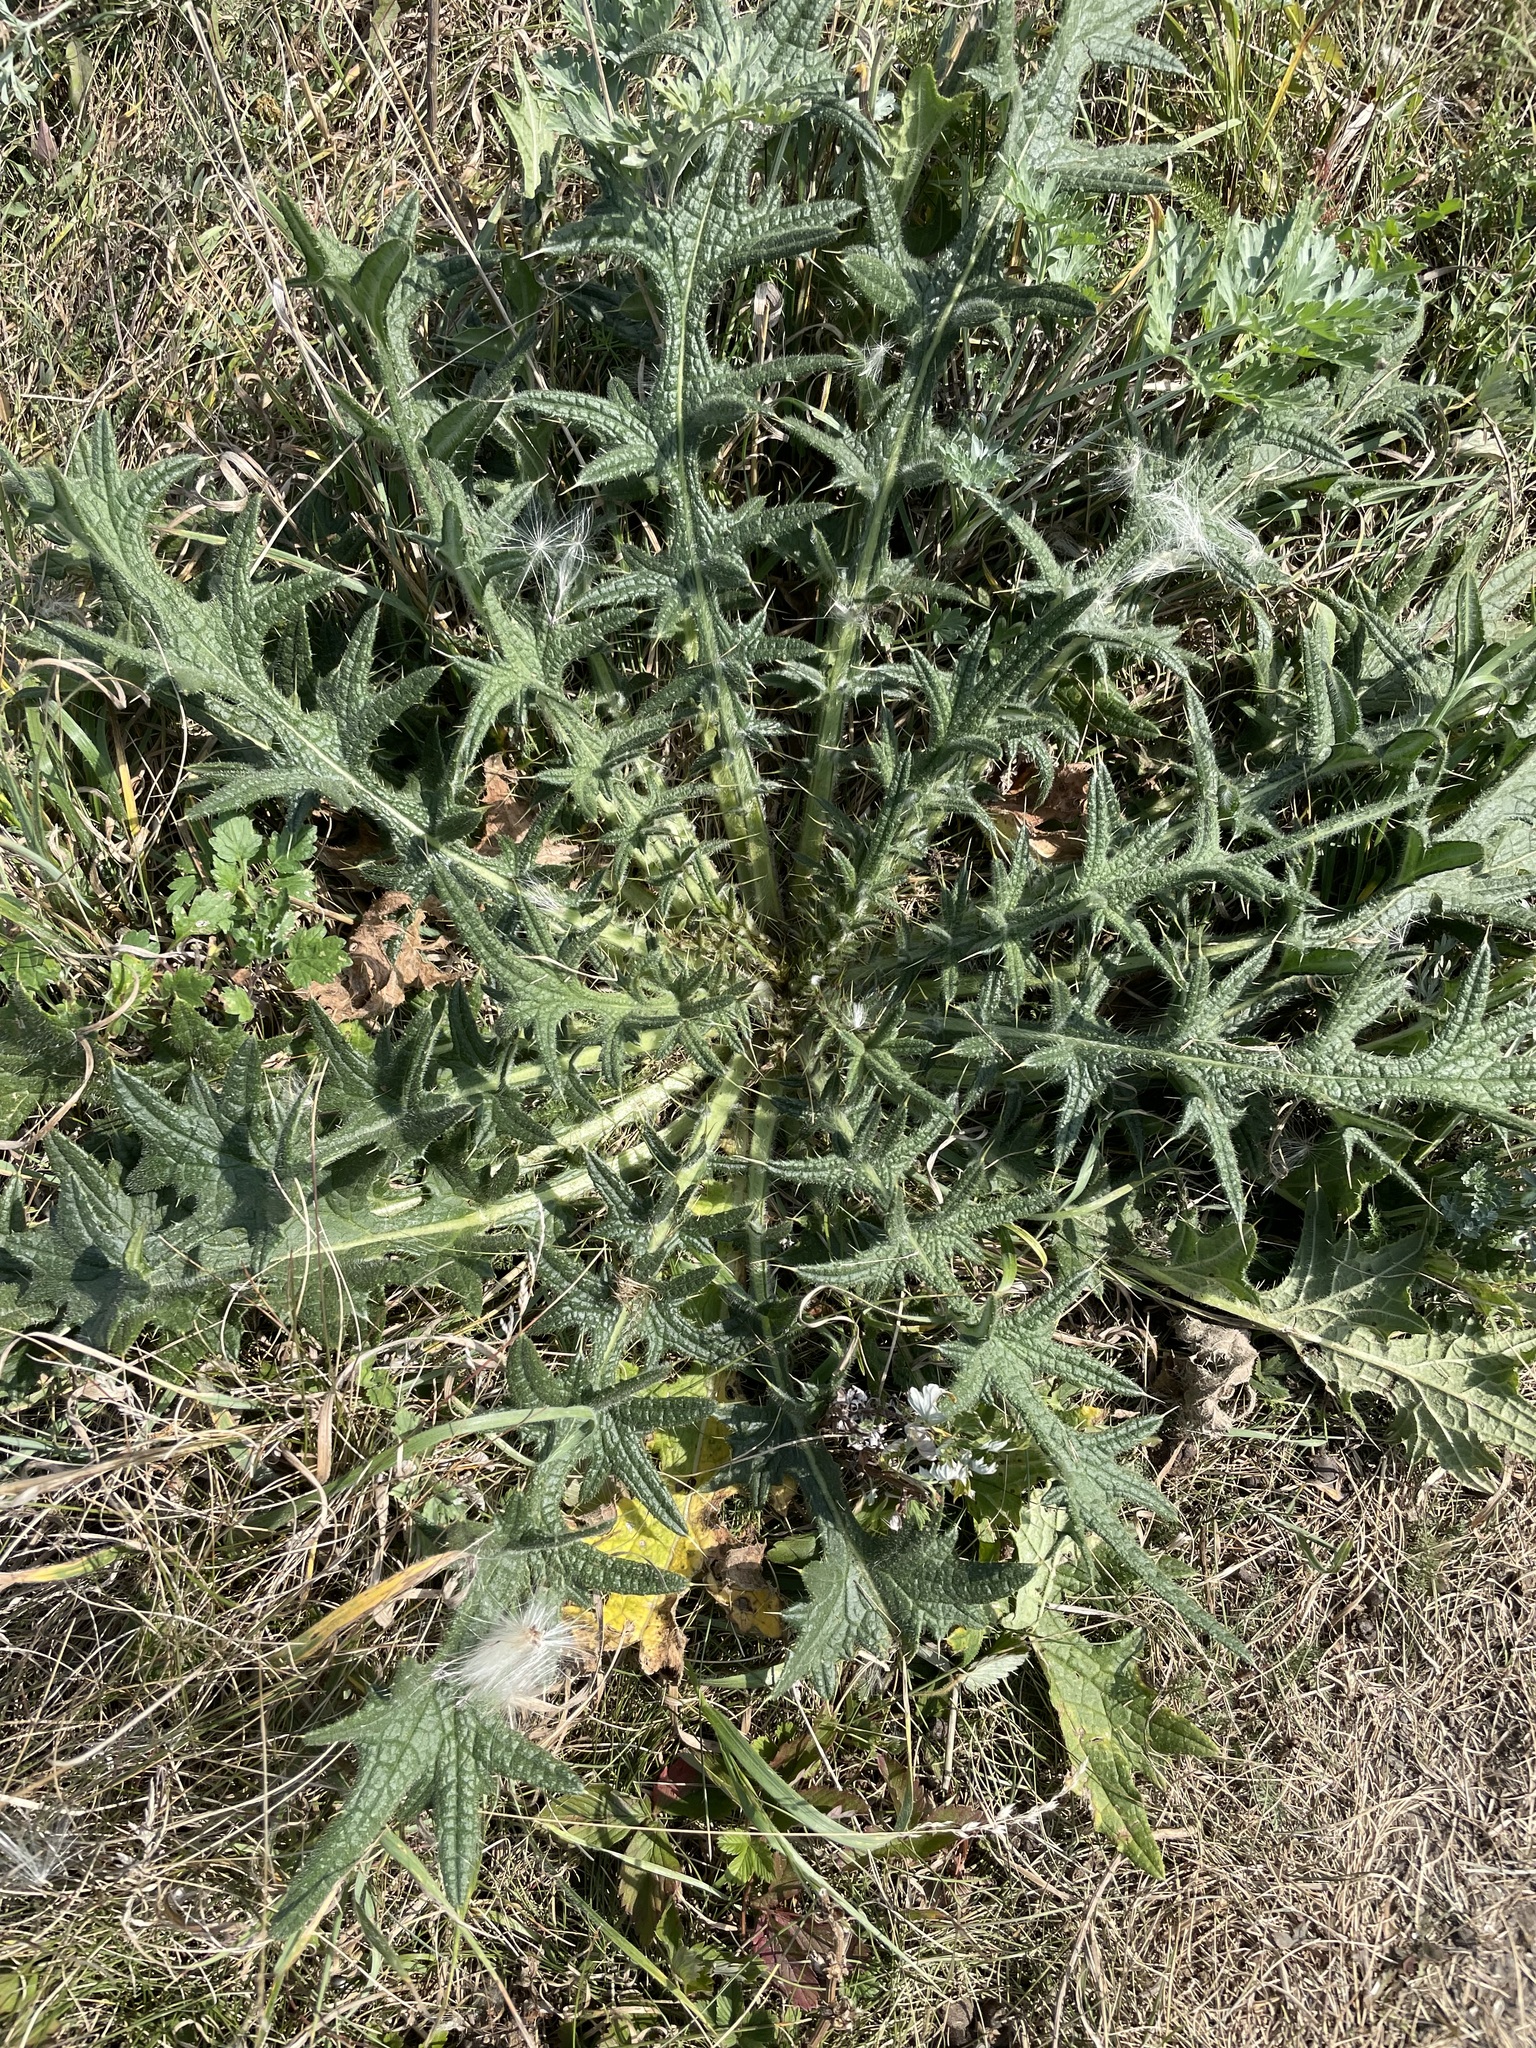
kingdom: Plantae
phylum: Tracheophyta
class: Magnoliopsida
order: Asterales
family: Asteraceae
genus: Cirsium
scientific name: Cirsium vulgare
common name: Bull thistle
